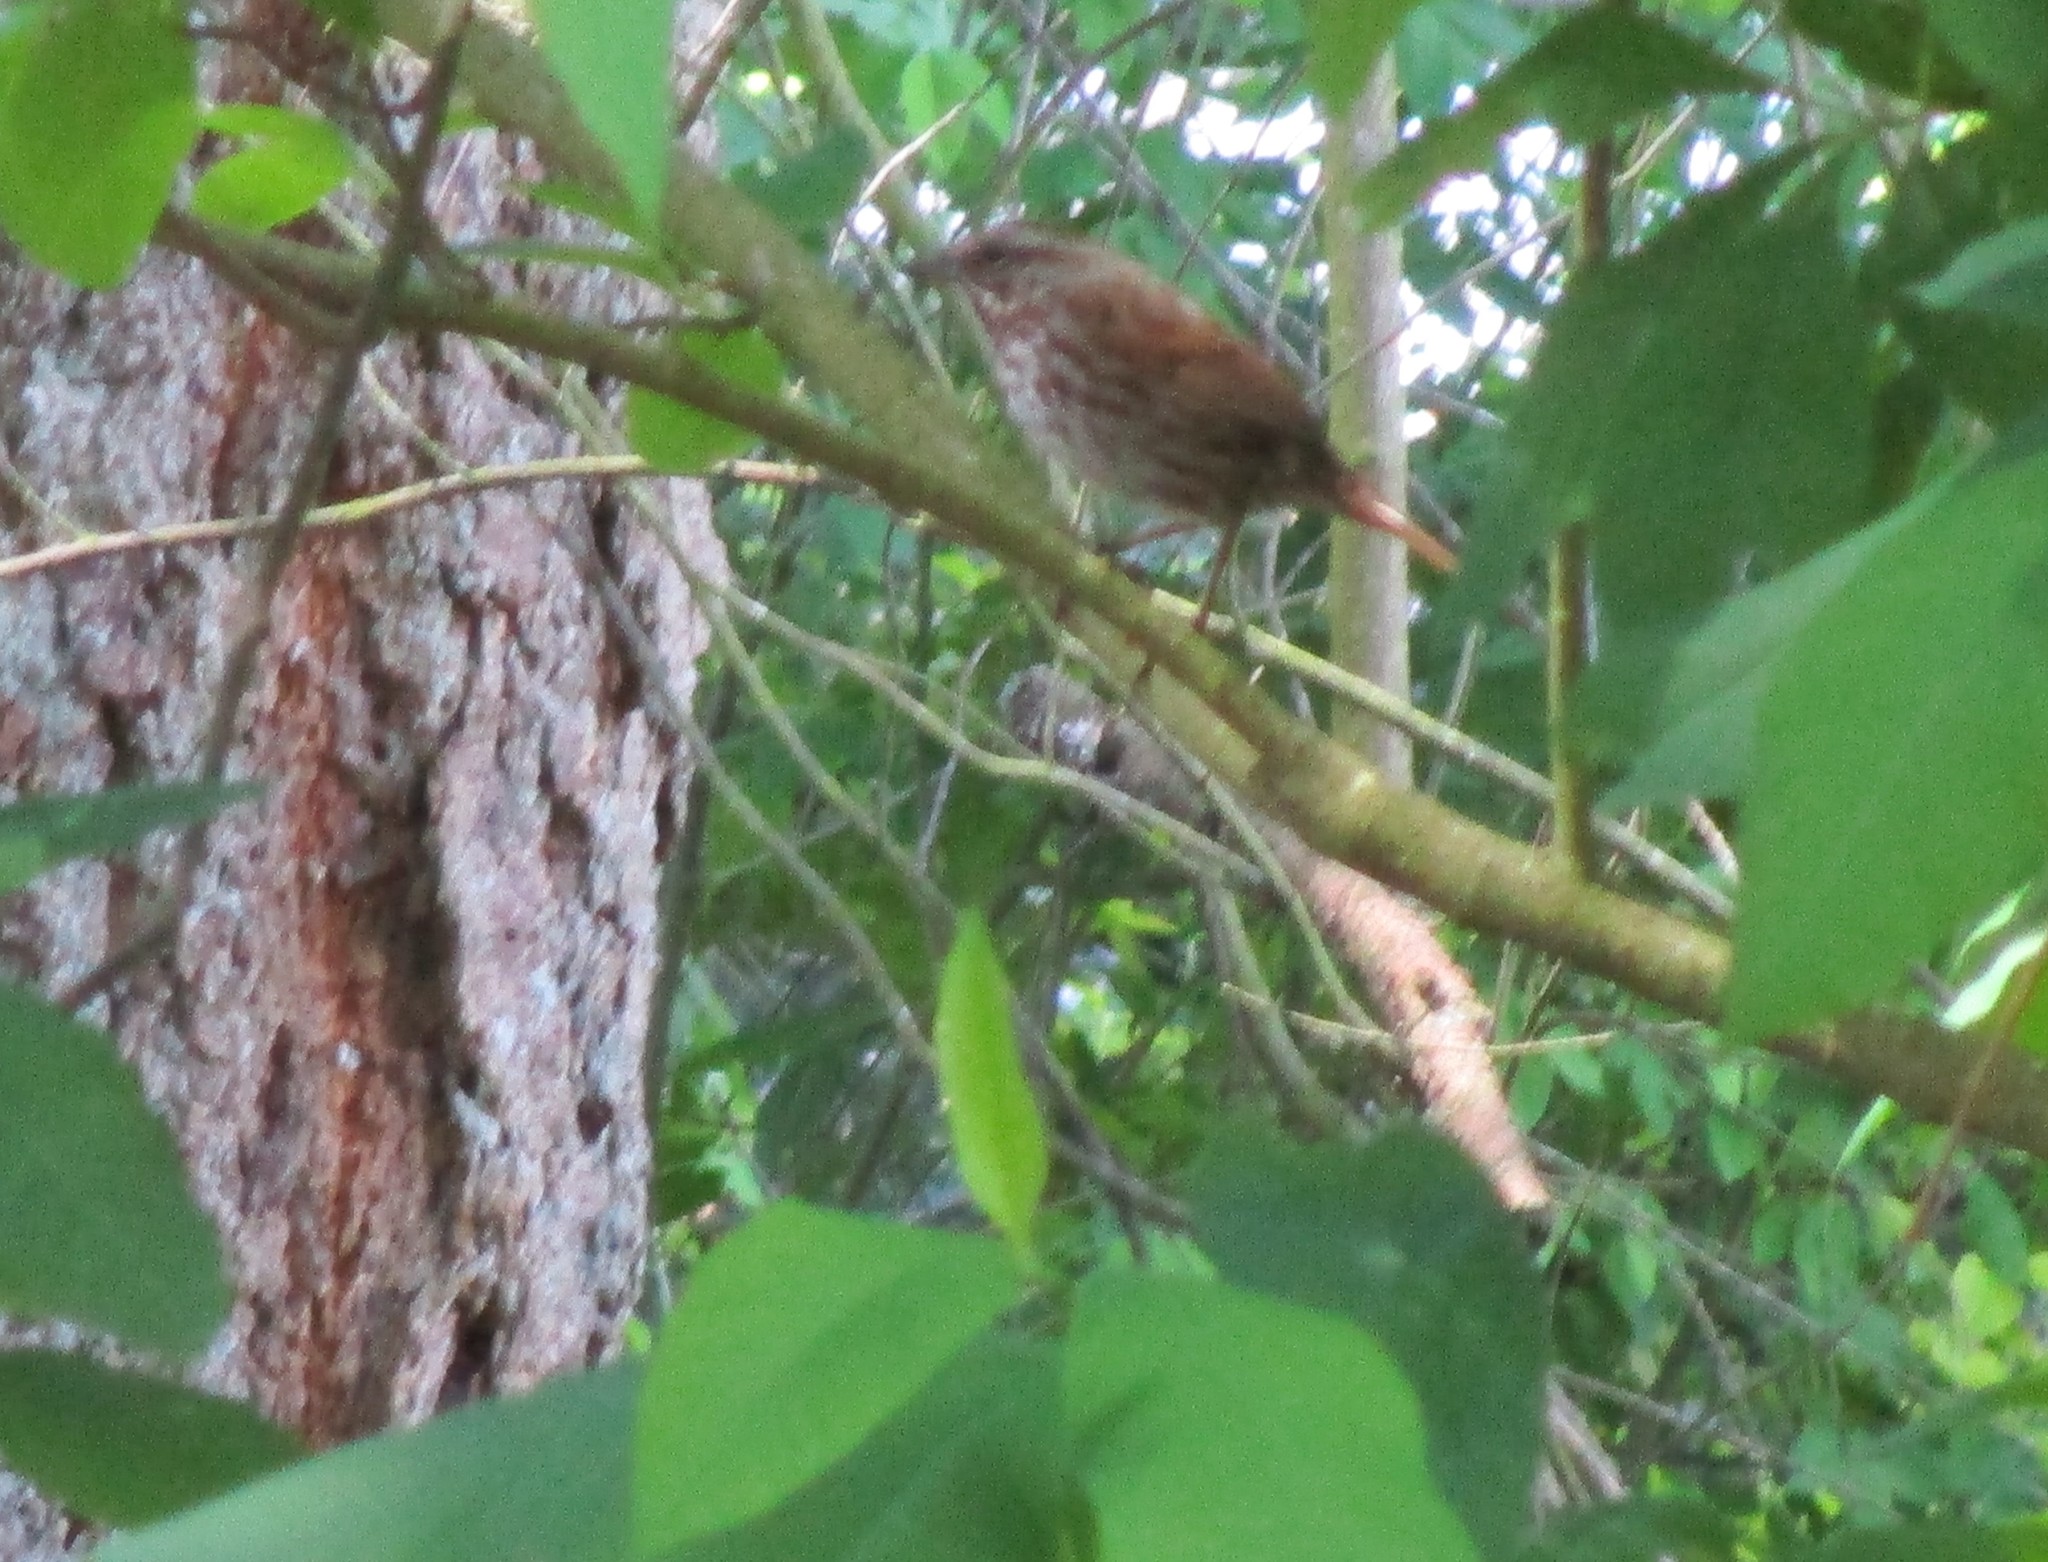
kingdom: Animalia
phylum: Chordata
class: Aves
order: Passeriformes
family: Passerellidae
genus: Melospiza
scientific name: Melospiza melodia
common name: Song sparrow
